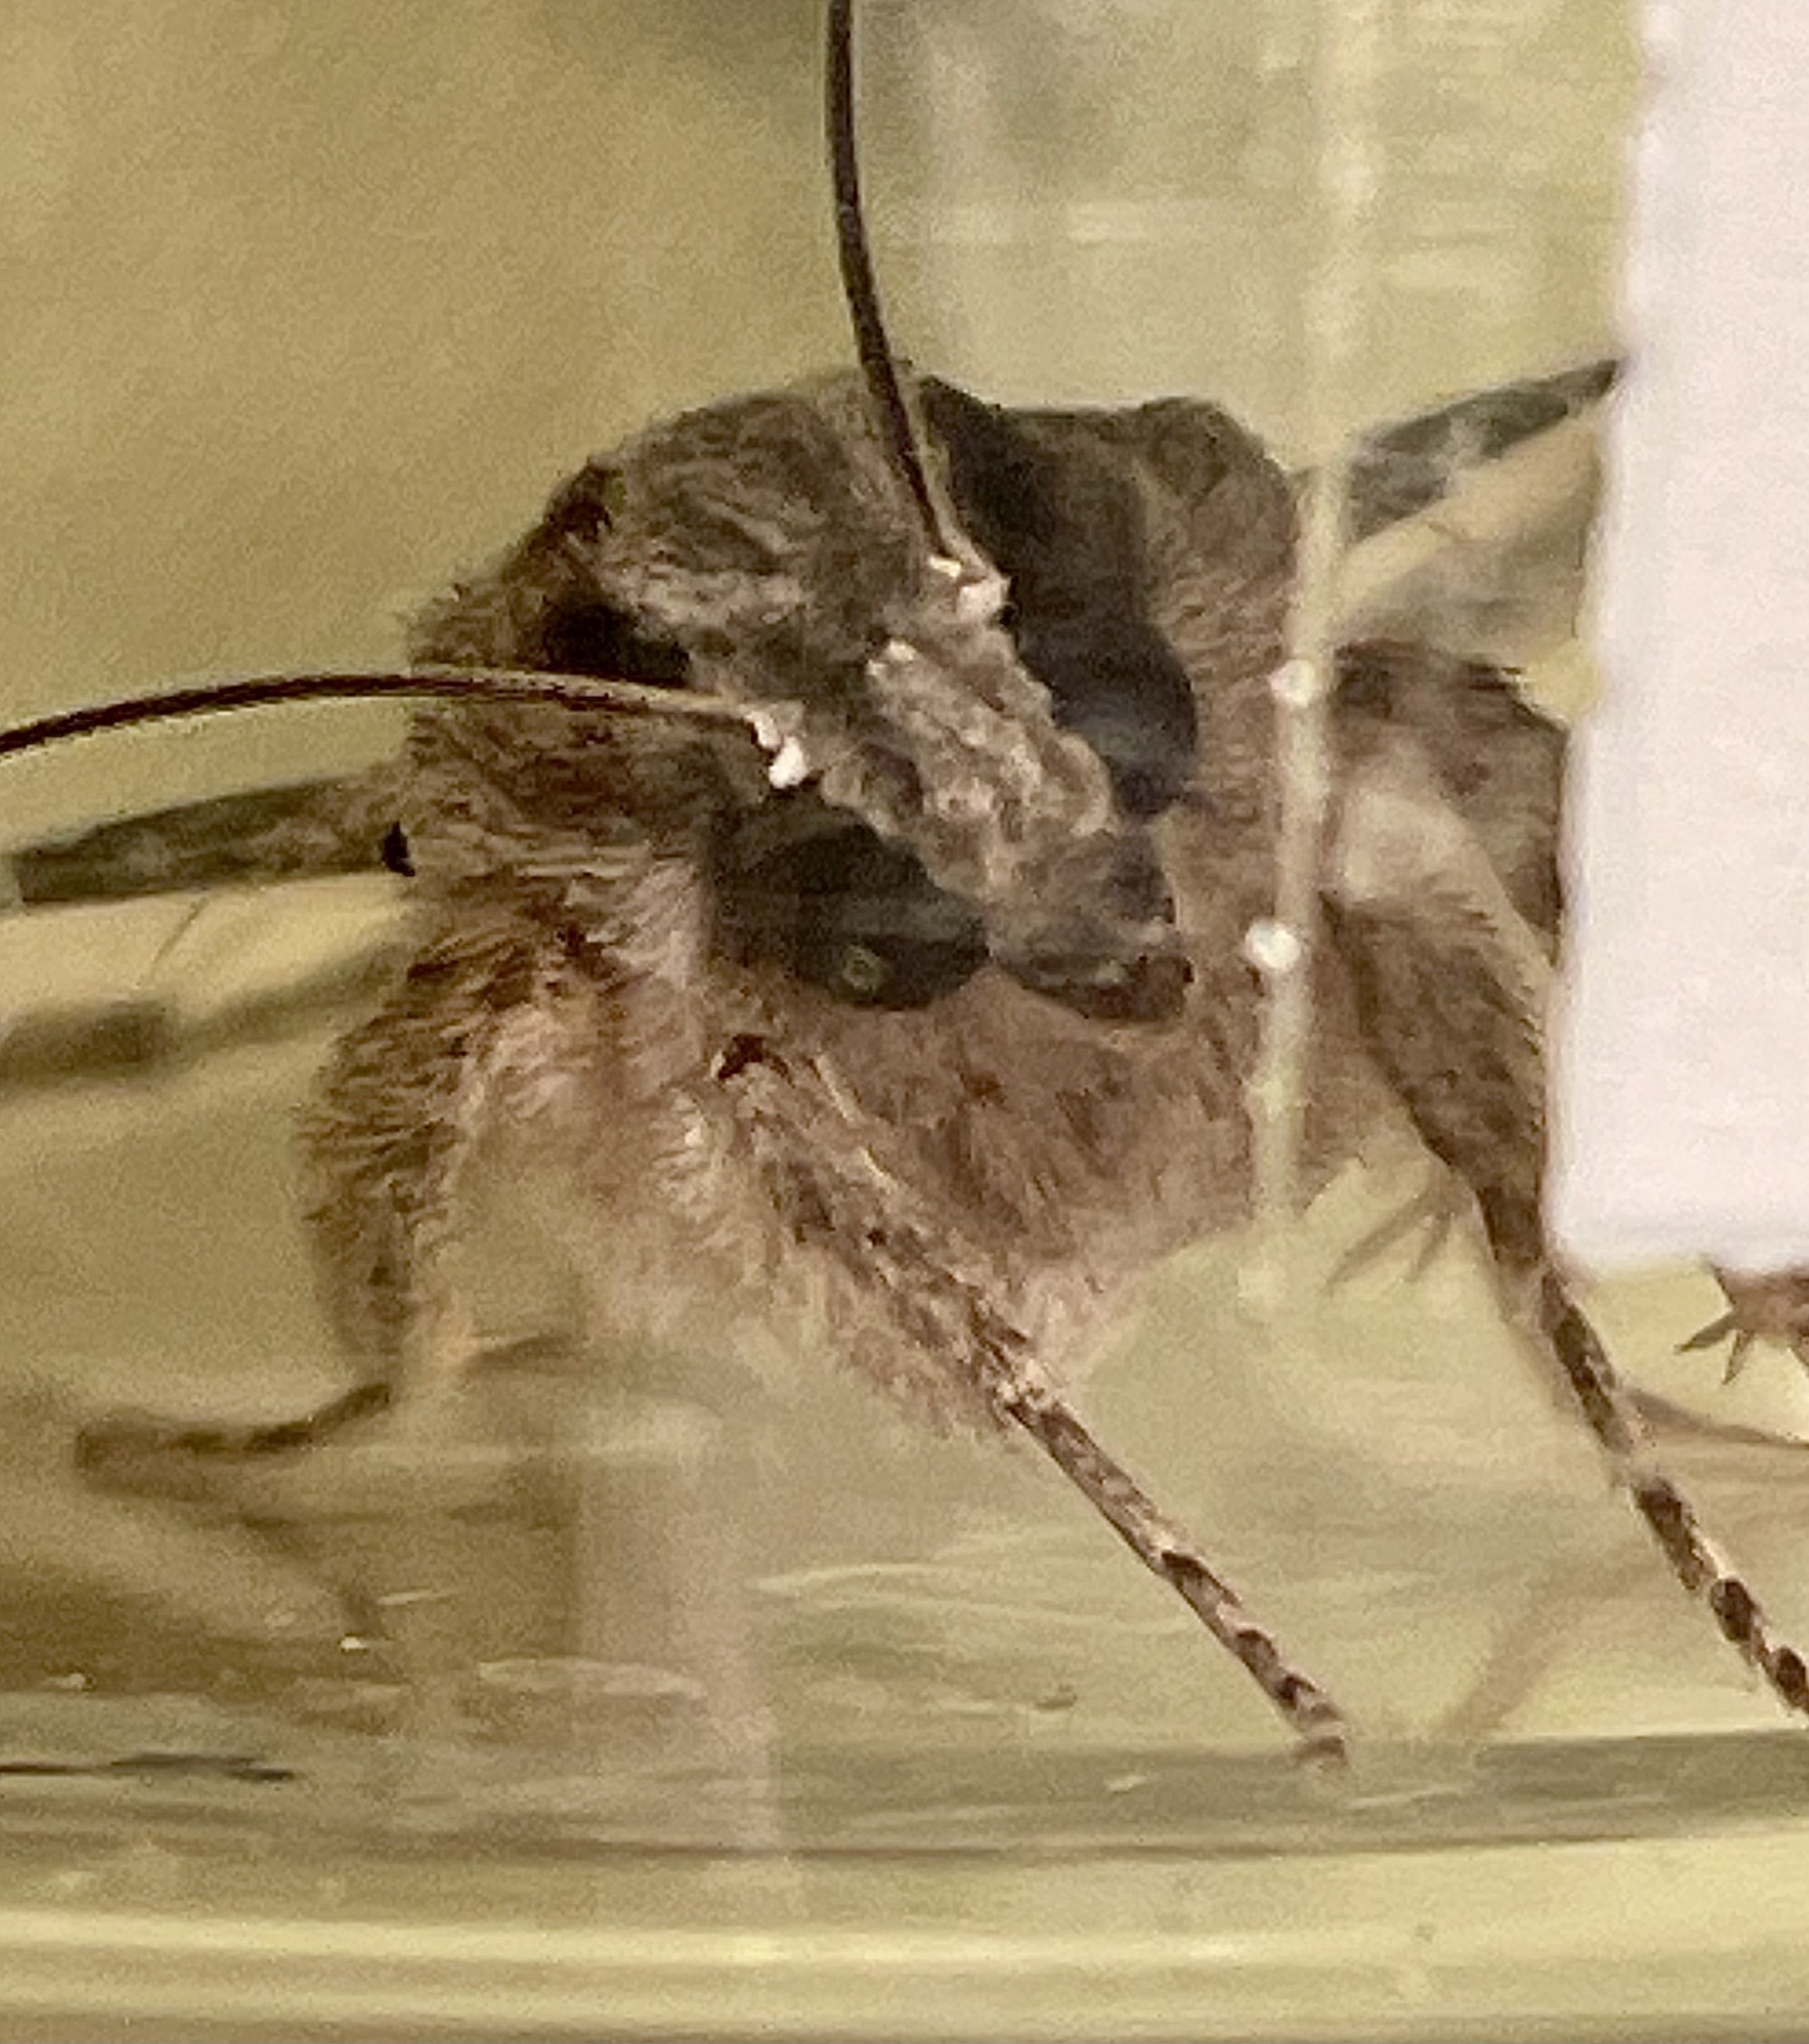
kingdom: Animalia
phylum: Arthropoda
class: Insecta
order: Lepidoptera
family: Erebidae
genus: Melipotis
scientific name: Melipotis acontioides
